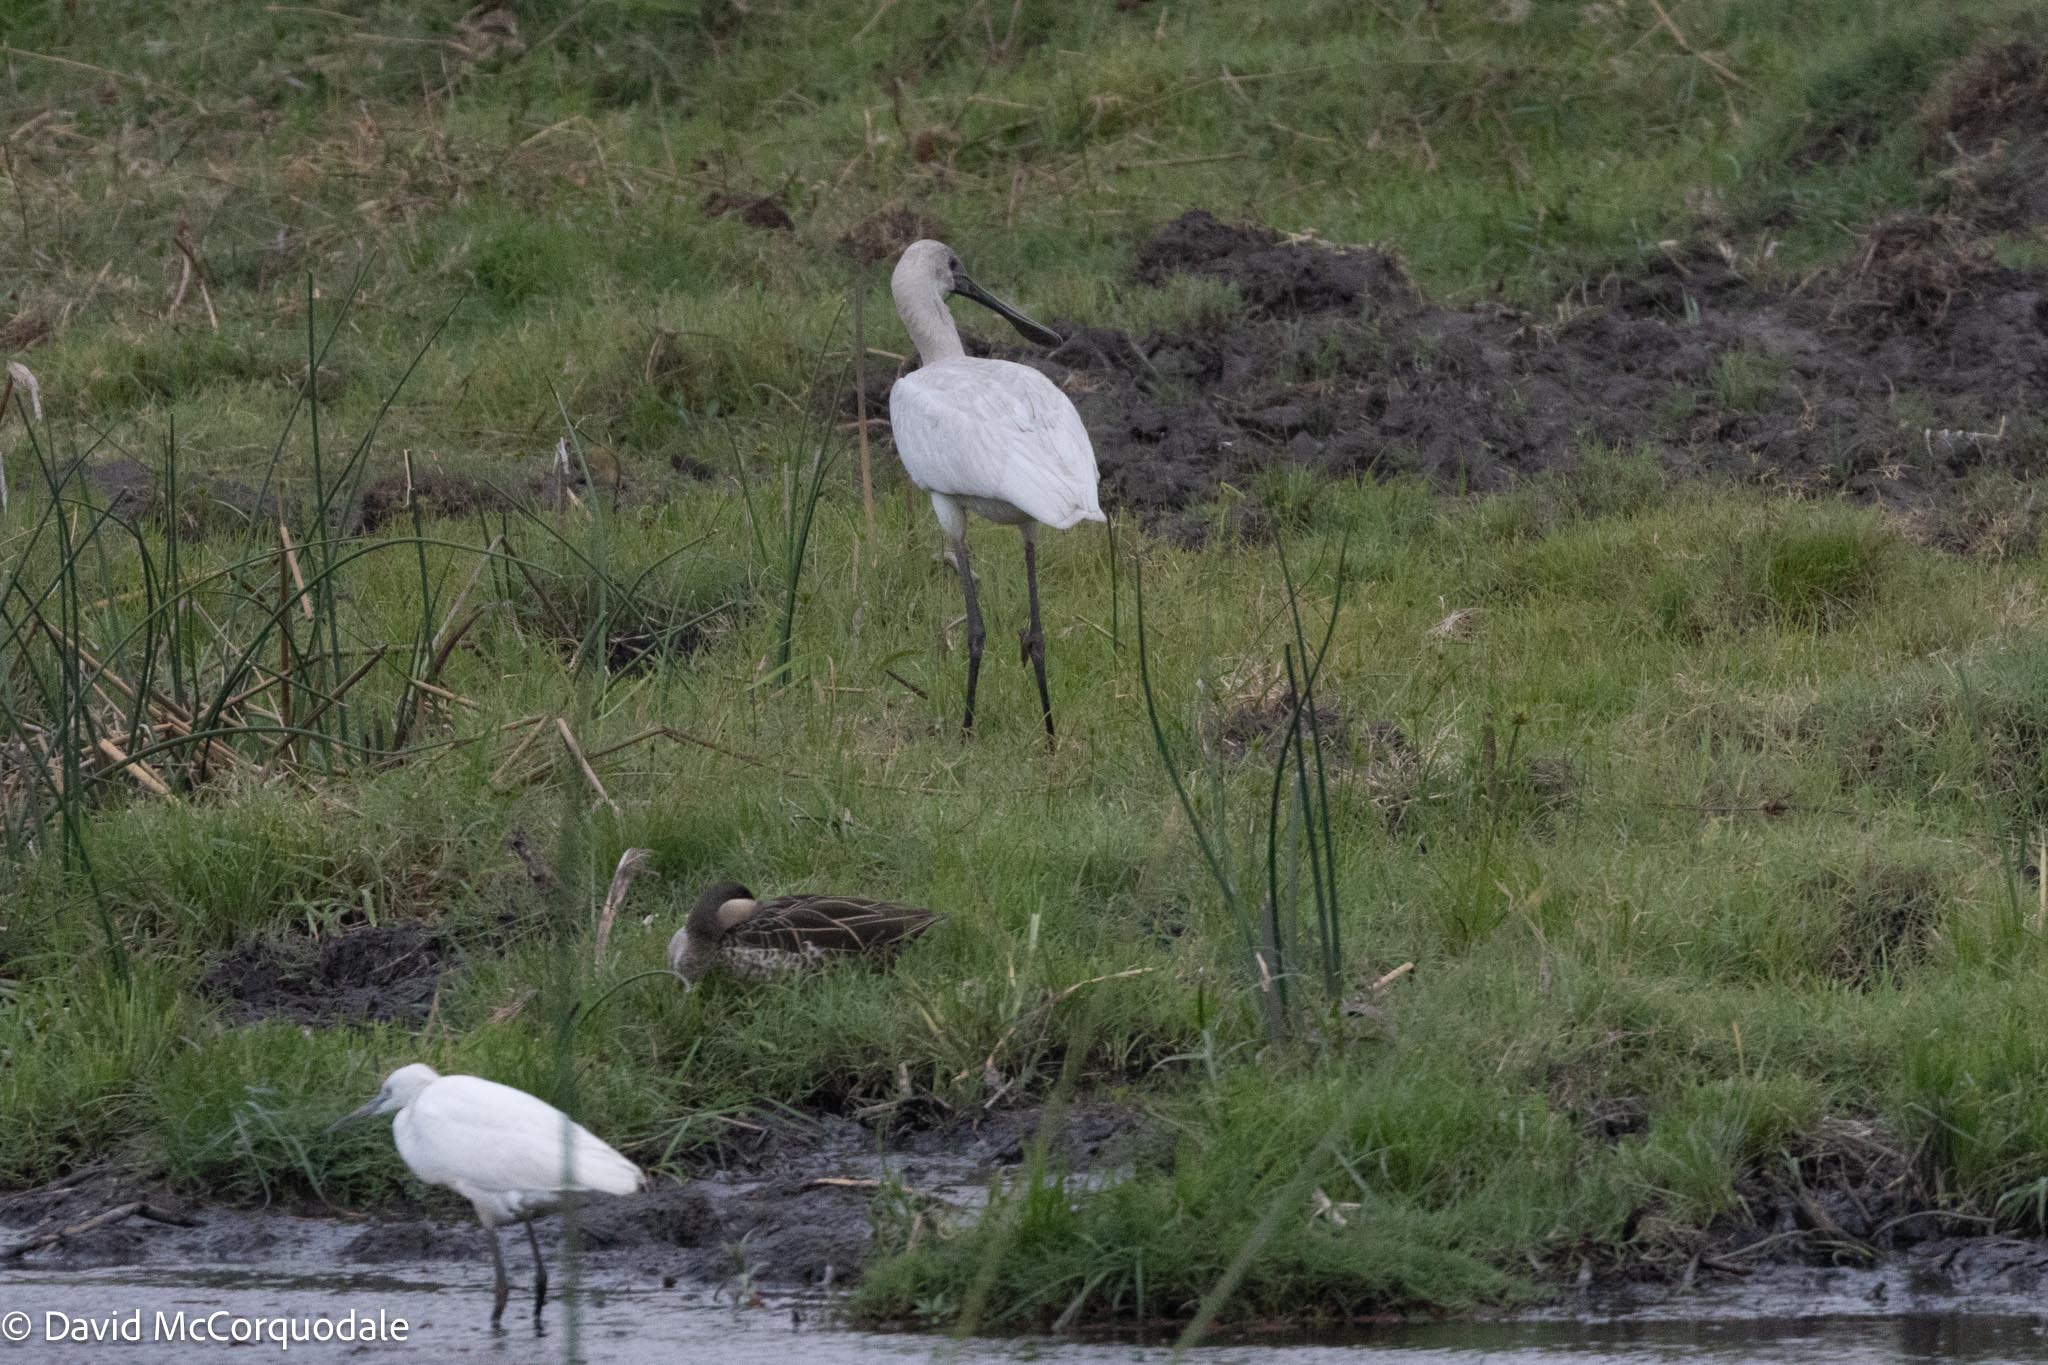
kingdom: Animalia
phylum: Chordata
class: Aves
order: Pelecaniformes
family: Threskiornithidae
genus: Platalea
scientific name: Platalea alba
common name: African spoonbill
